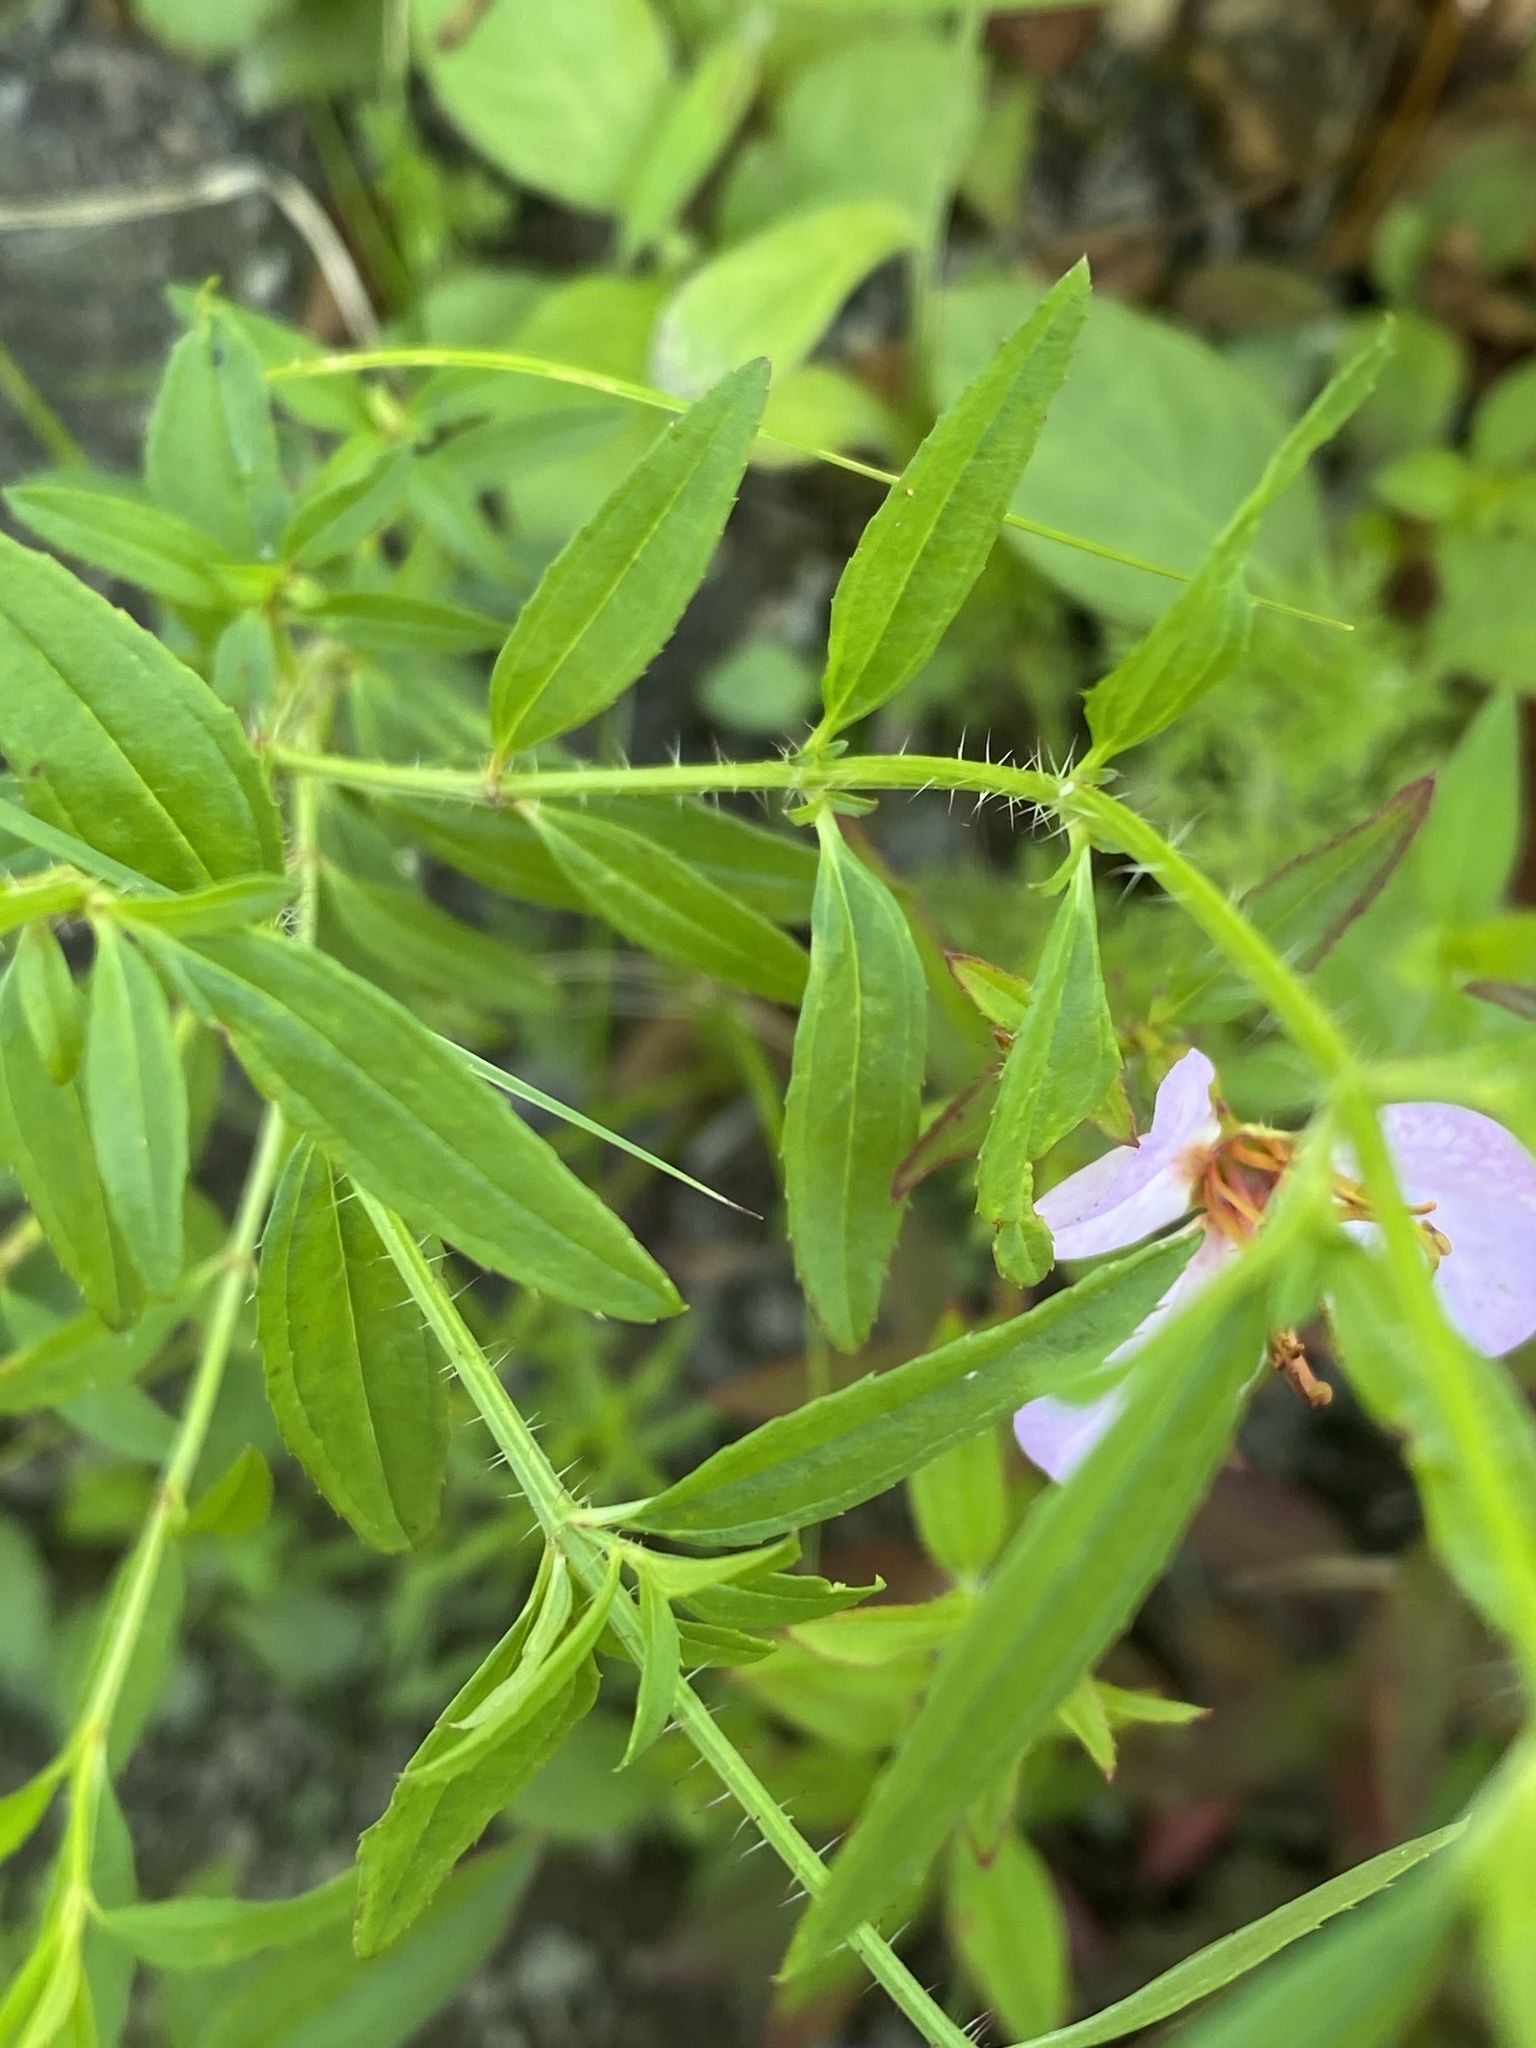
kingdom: Plantae
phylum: Tracheophyta
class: Magnoliopsida
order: Myrtales
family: Melastomataceae
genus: Rhexia
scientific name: Rhexia mariana
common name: Dull meadow-pitcher
